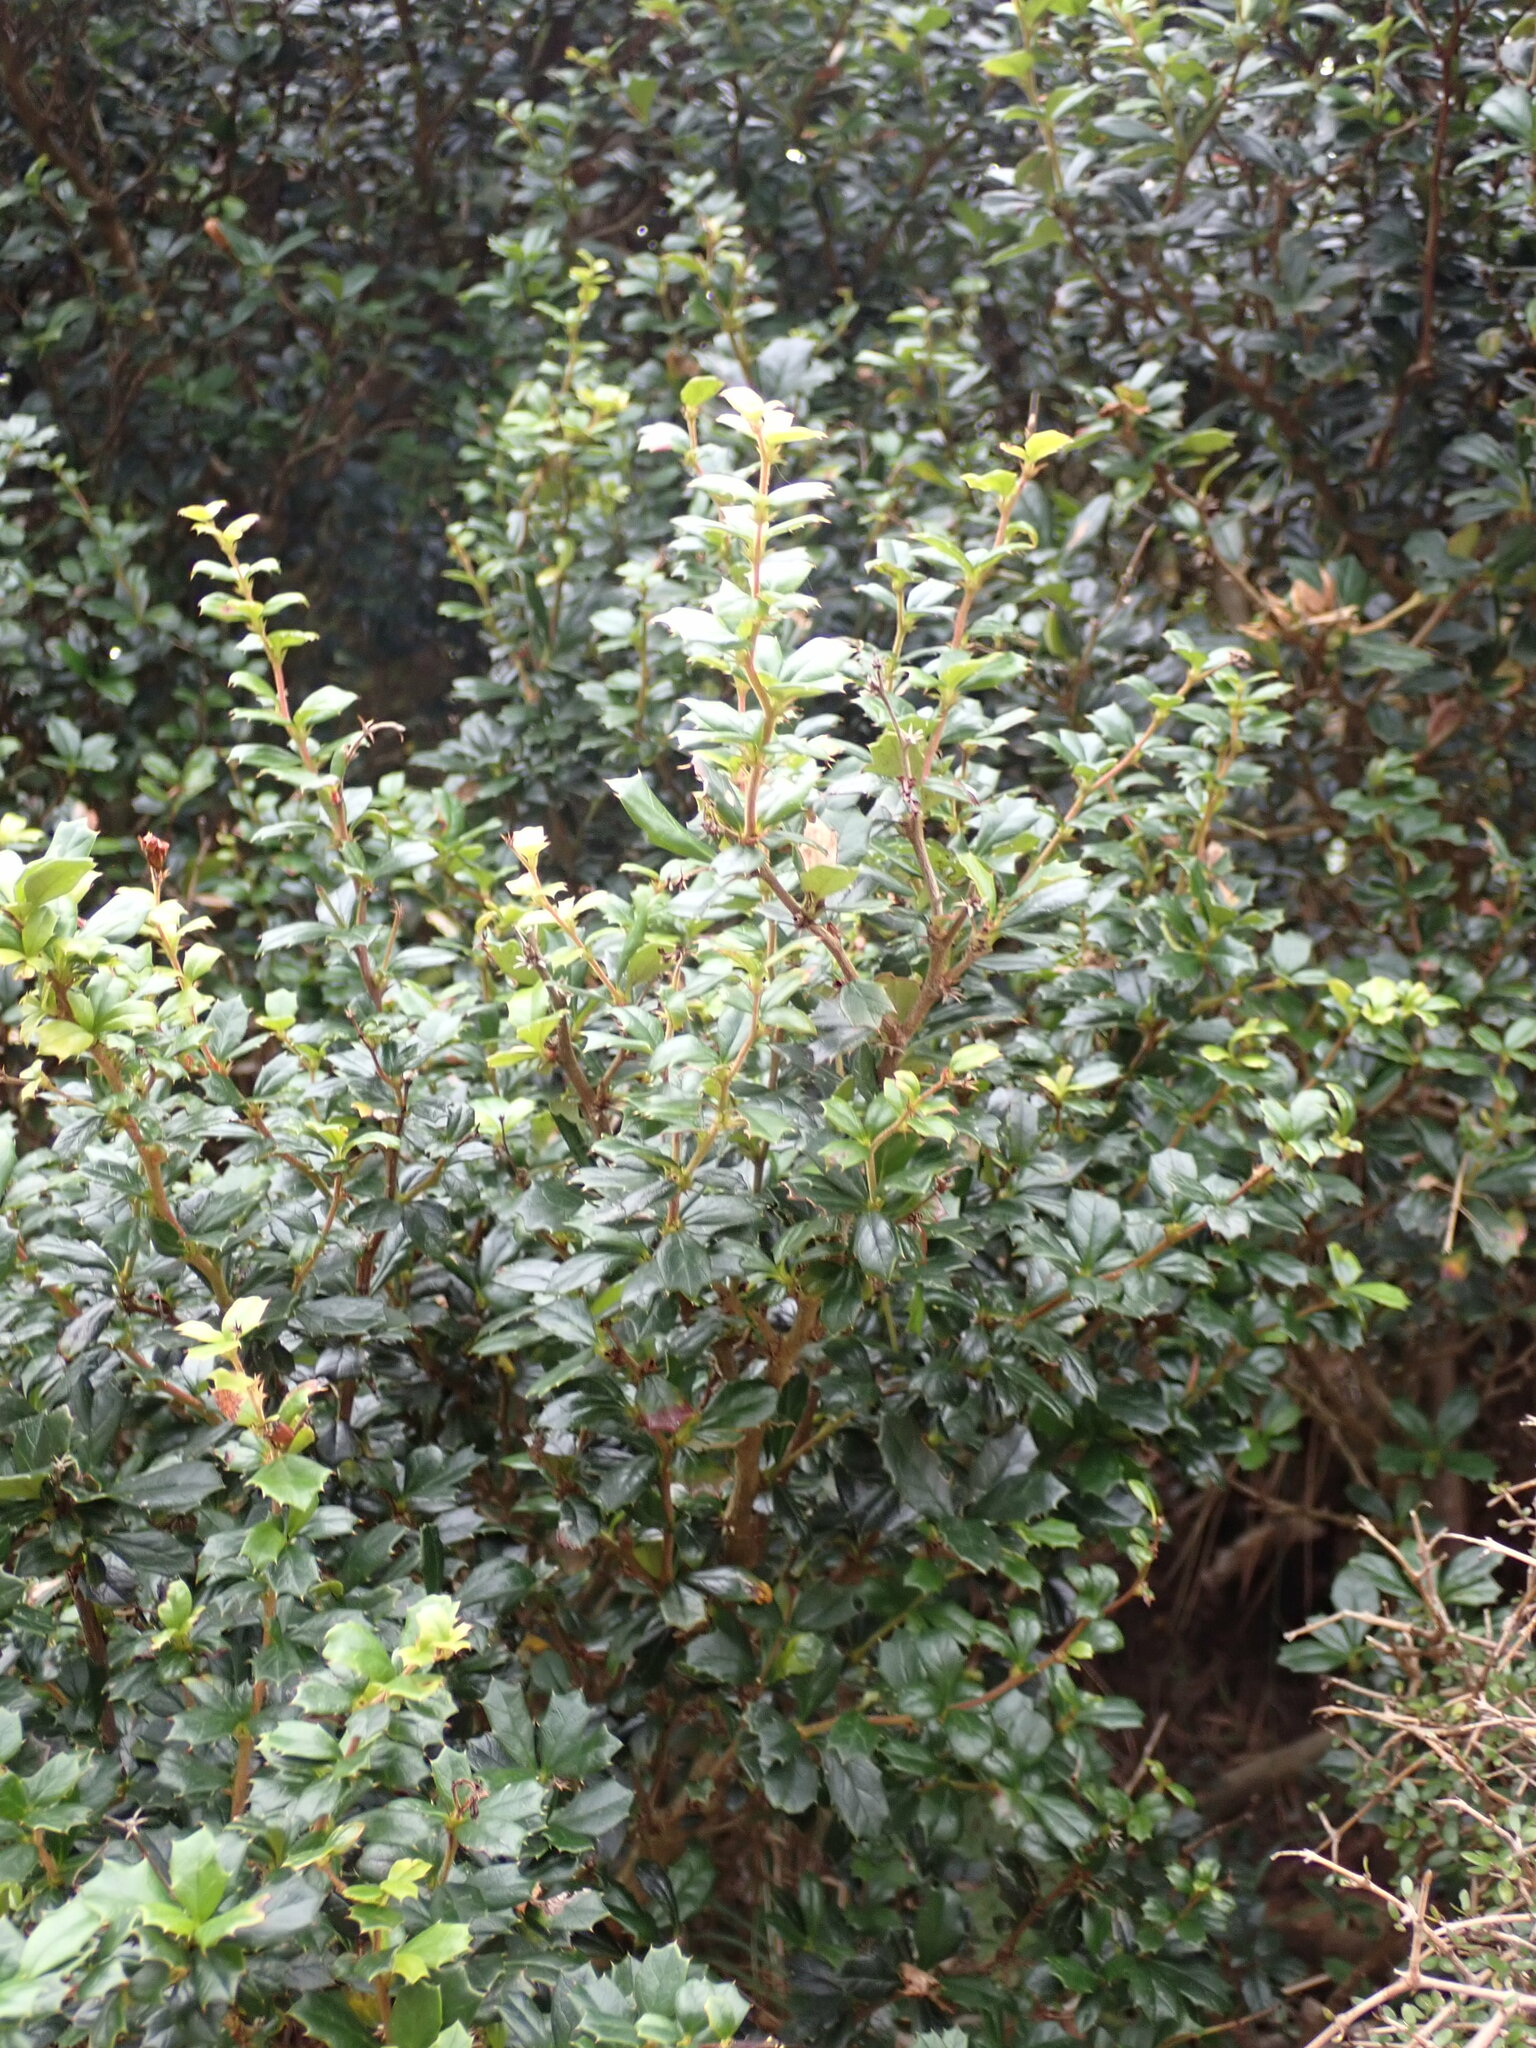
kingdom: Plantae
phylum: Tracheophyta
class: Magnoliopsida
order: Ranunculales
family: Berberidaceae
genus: Berberis
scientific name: Berberis darwinii
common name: Darwin's barberry
